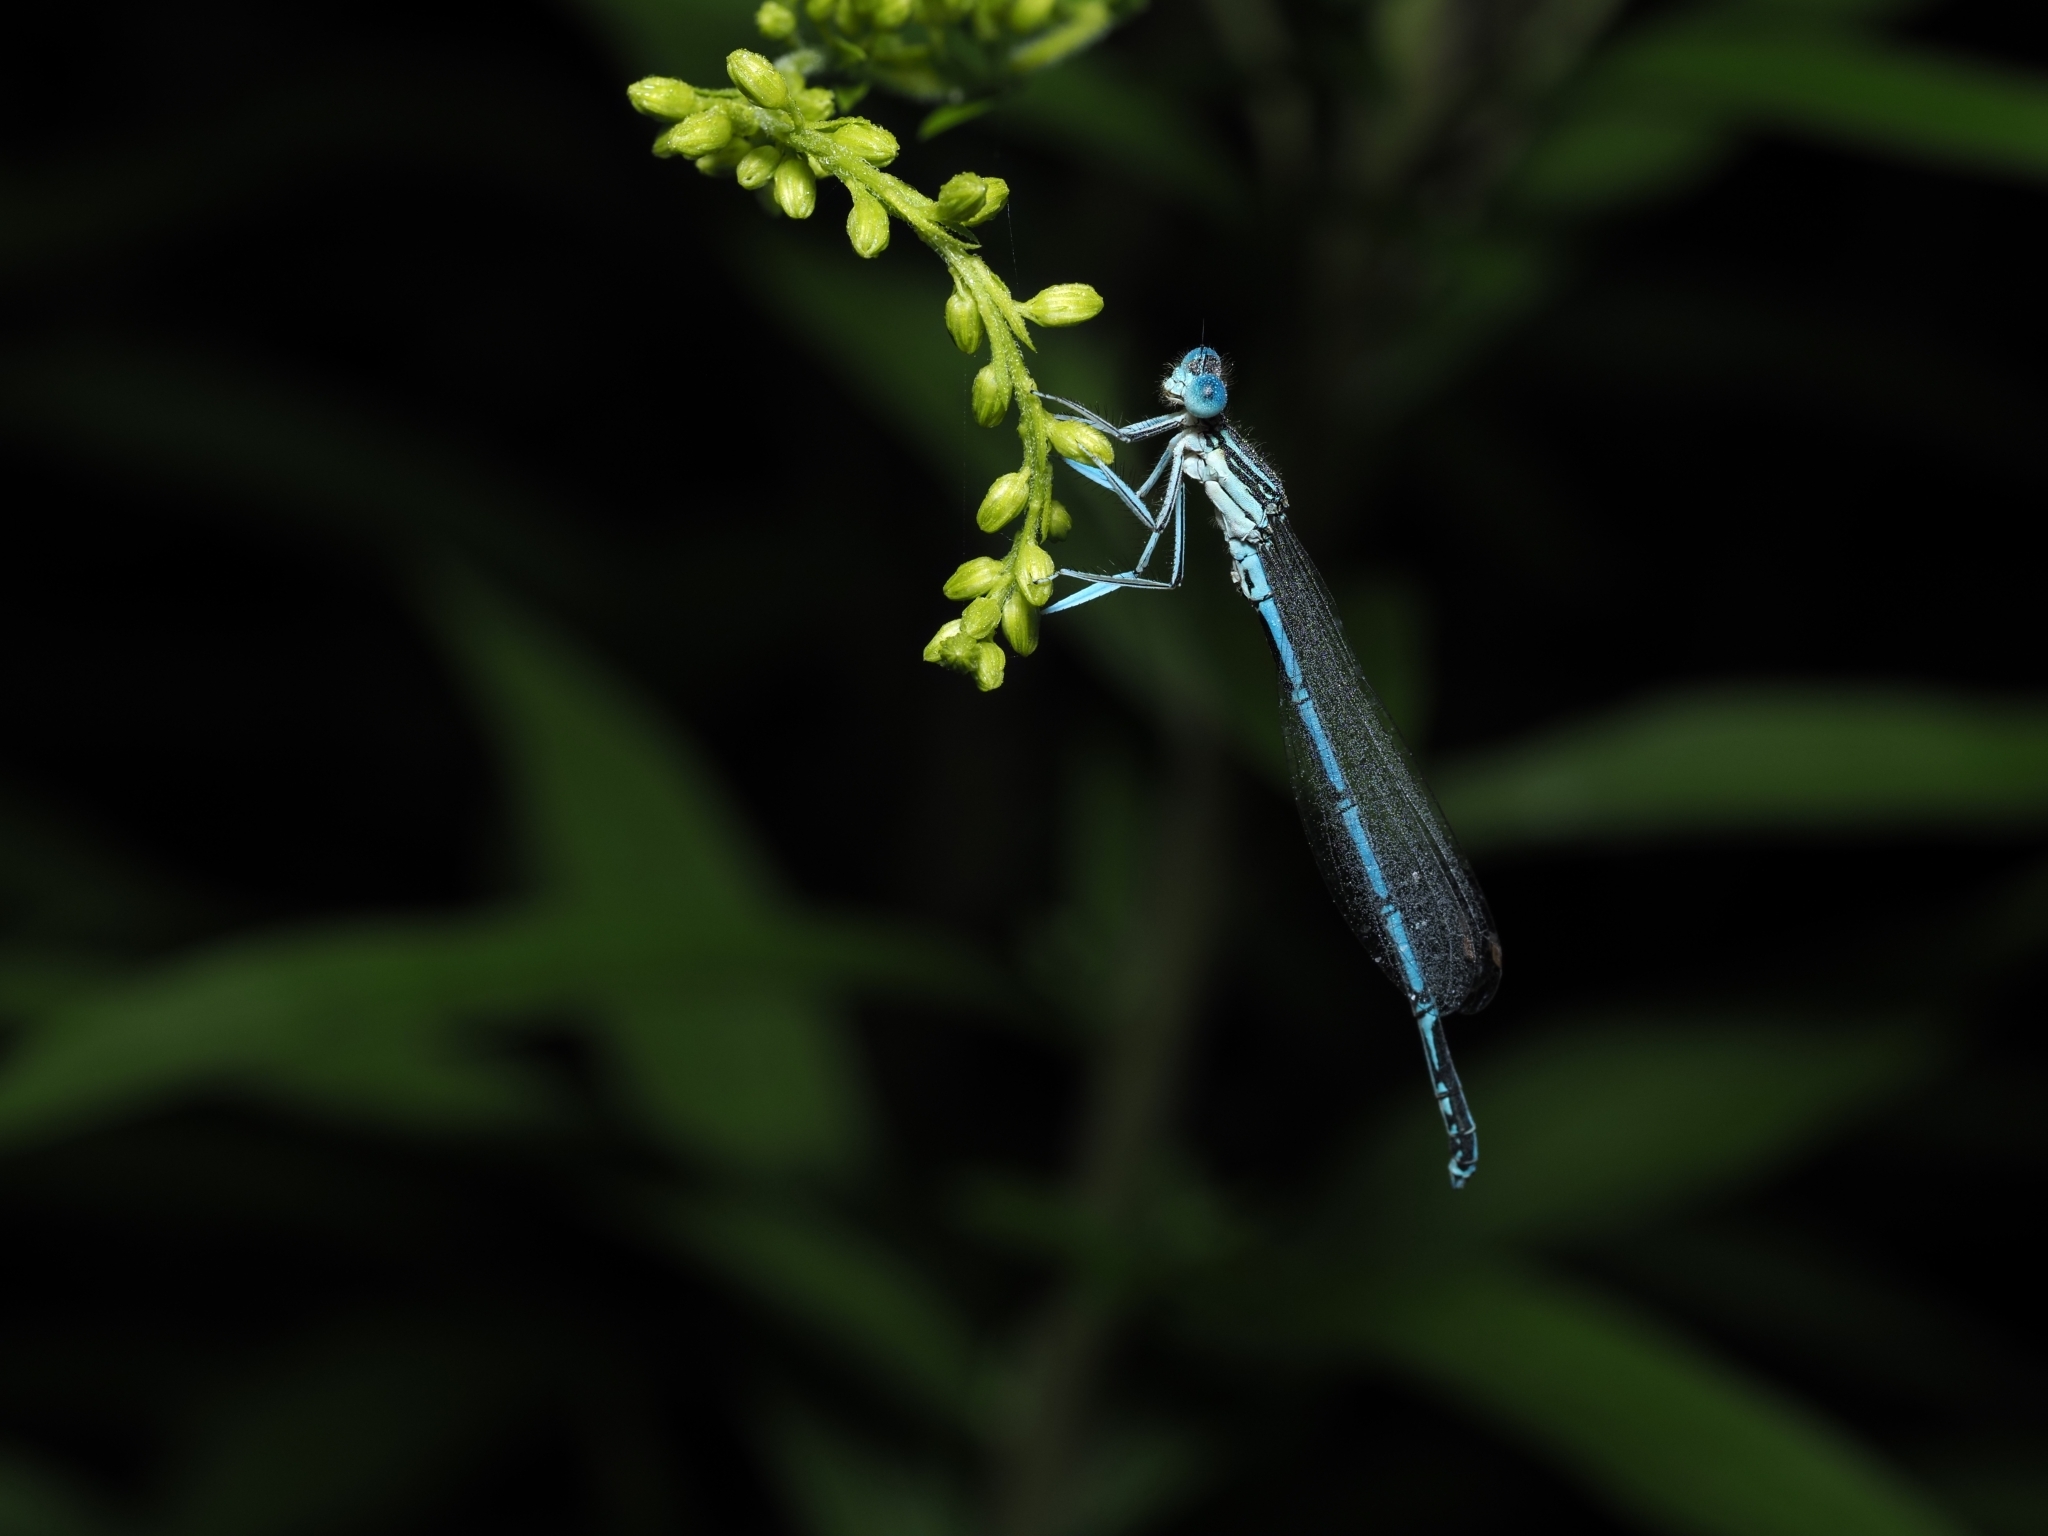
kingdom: Animalia
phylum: Arthropoda
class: Insecta
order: Odonata
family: Platycnemididae
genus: Platycnemis
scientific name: Platycnemis pennipes
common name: White-legged damselfly
